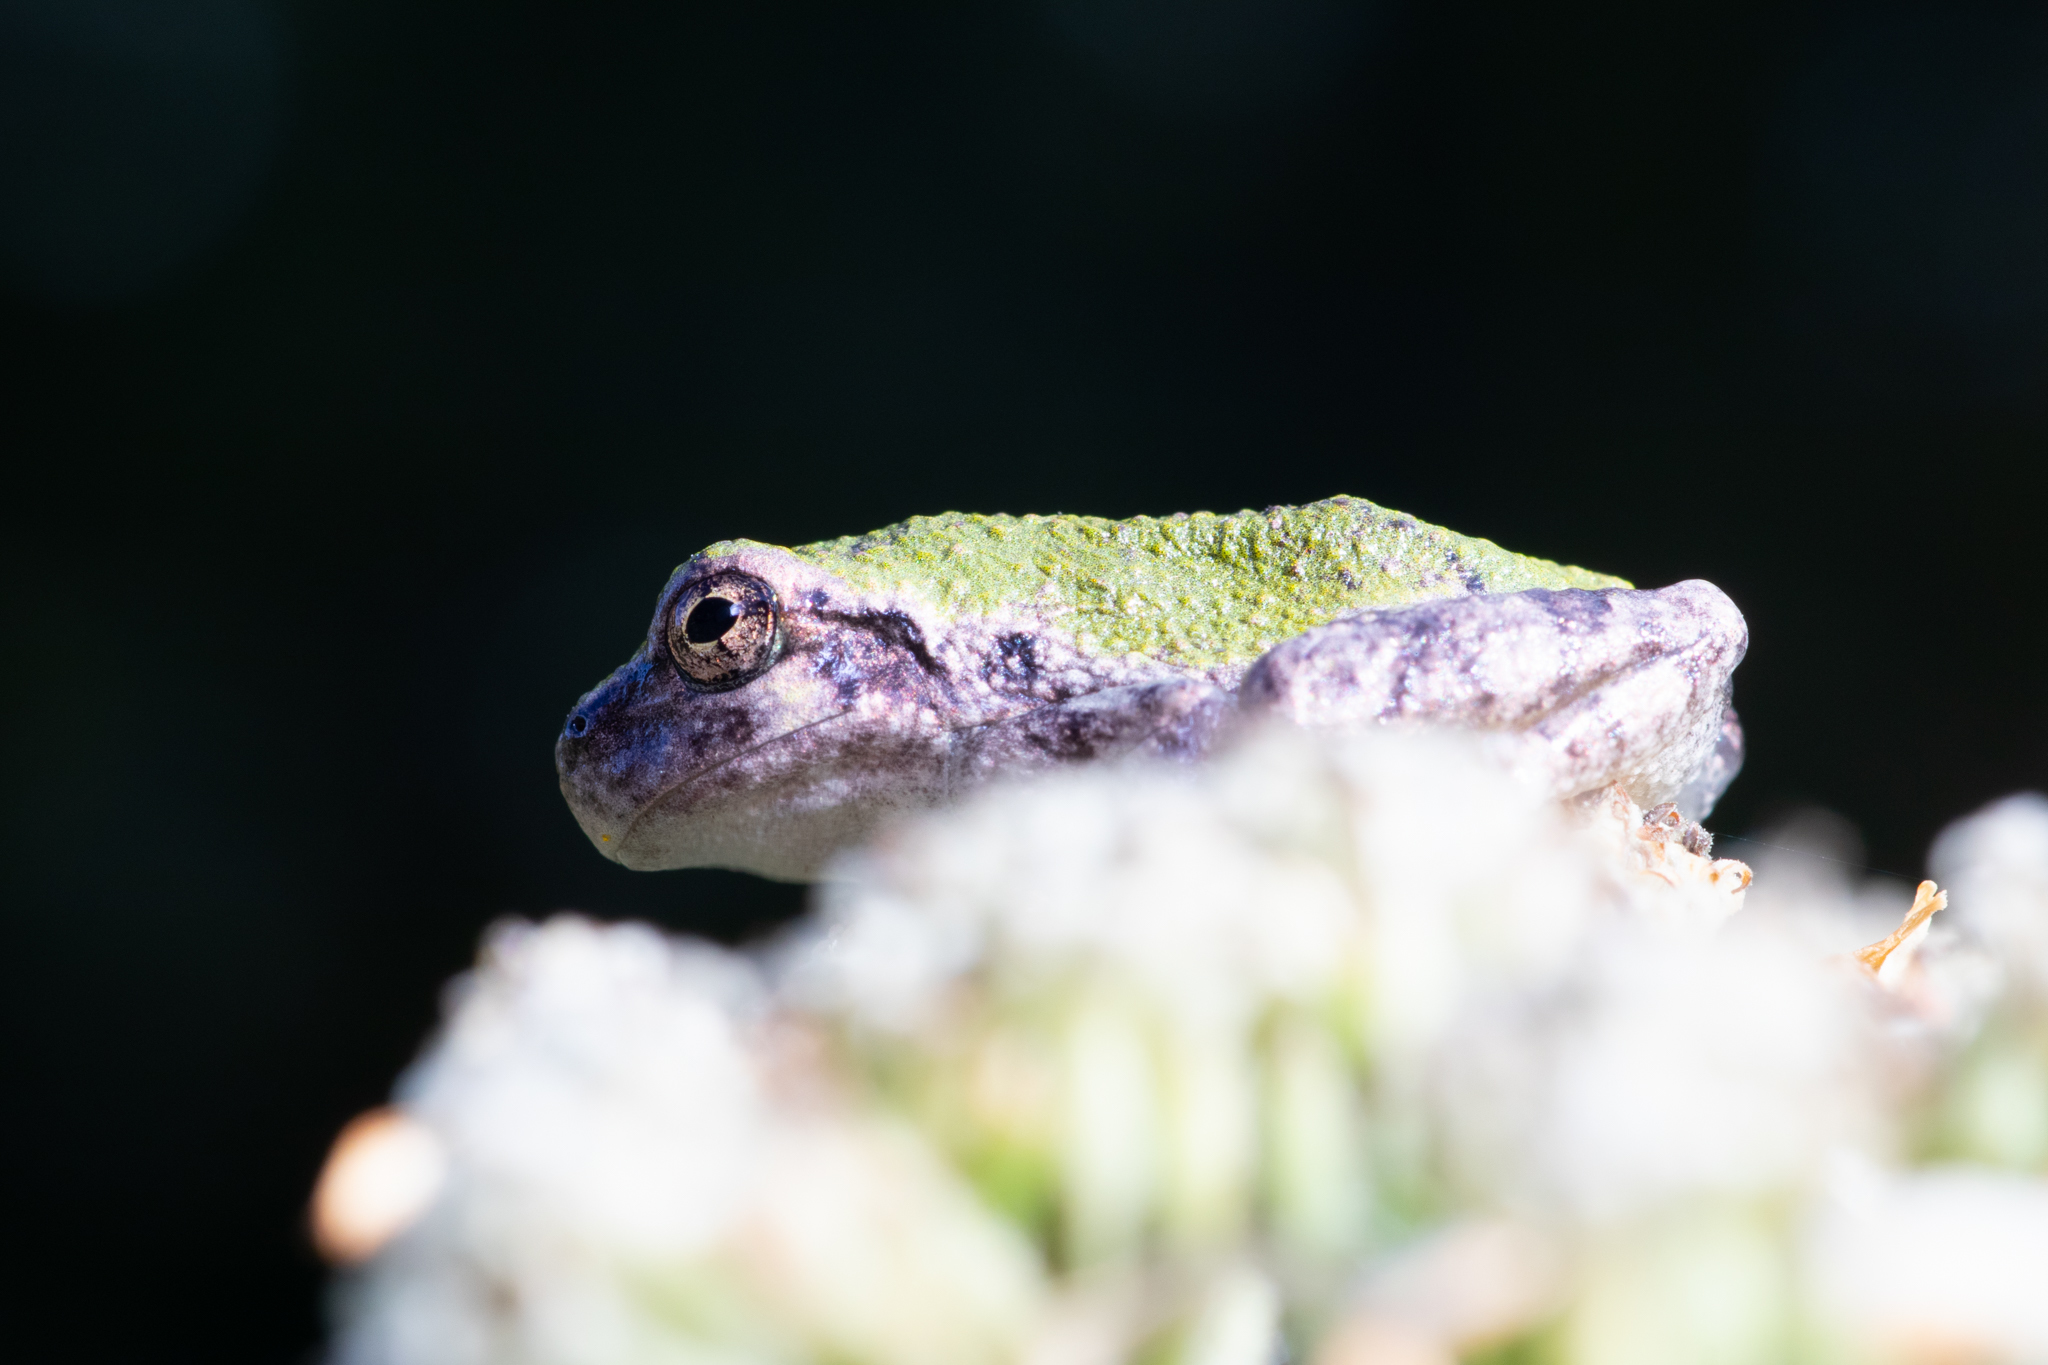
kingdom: Animalia
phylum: Chordata
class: Amphibia
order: Anura
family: Hylidae
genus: Dryophytes
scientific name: Dryophytes chrysoscelis
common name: Cope's gray treefrog
